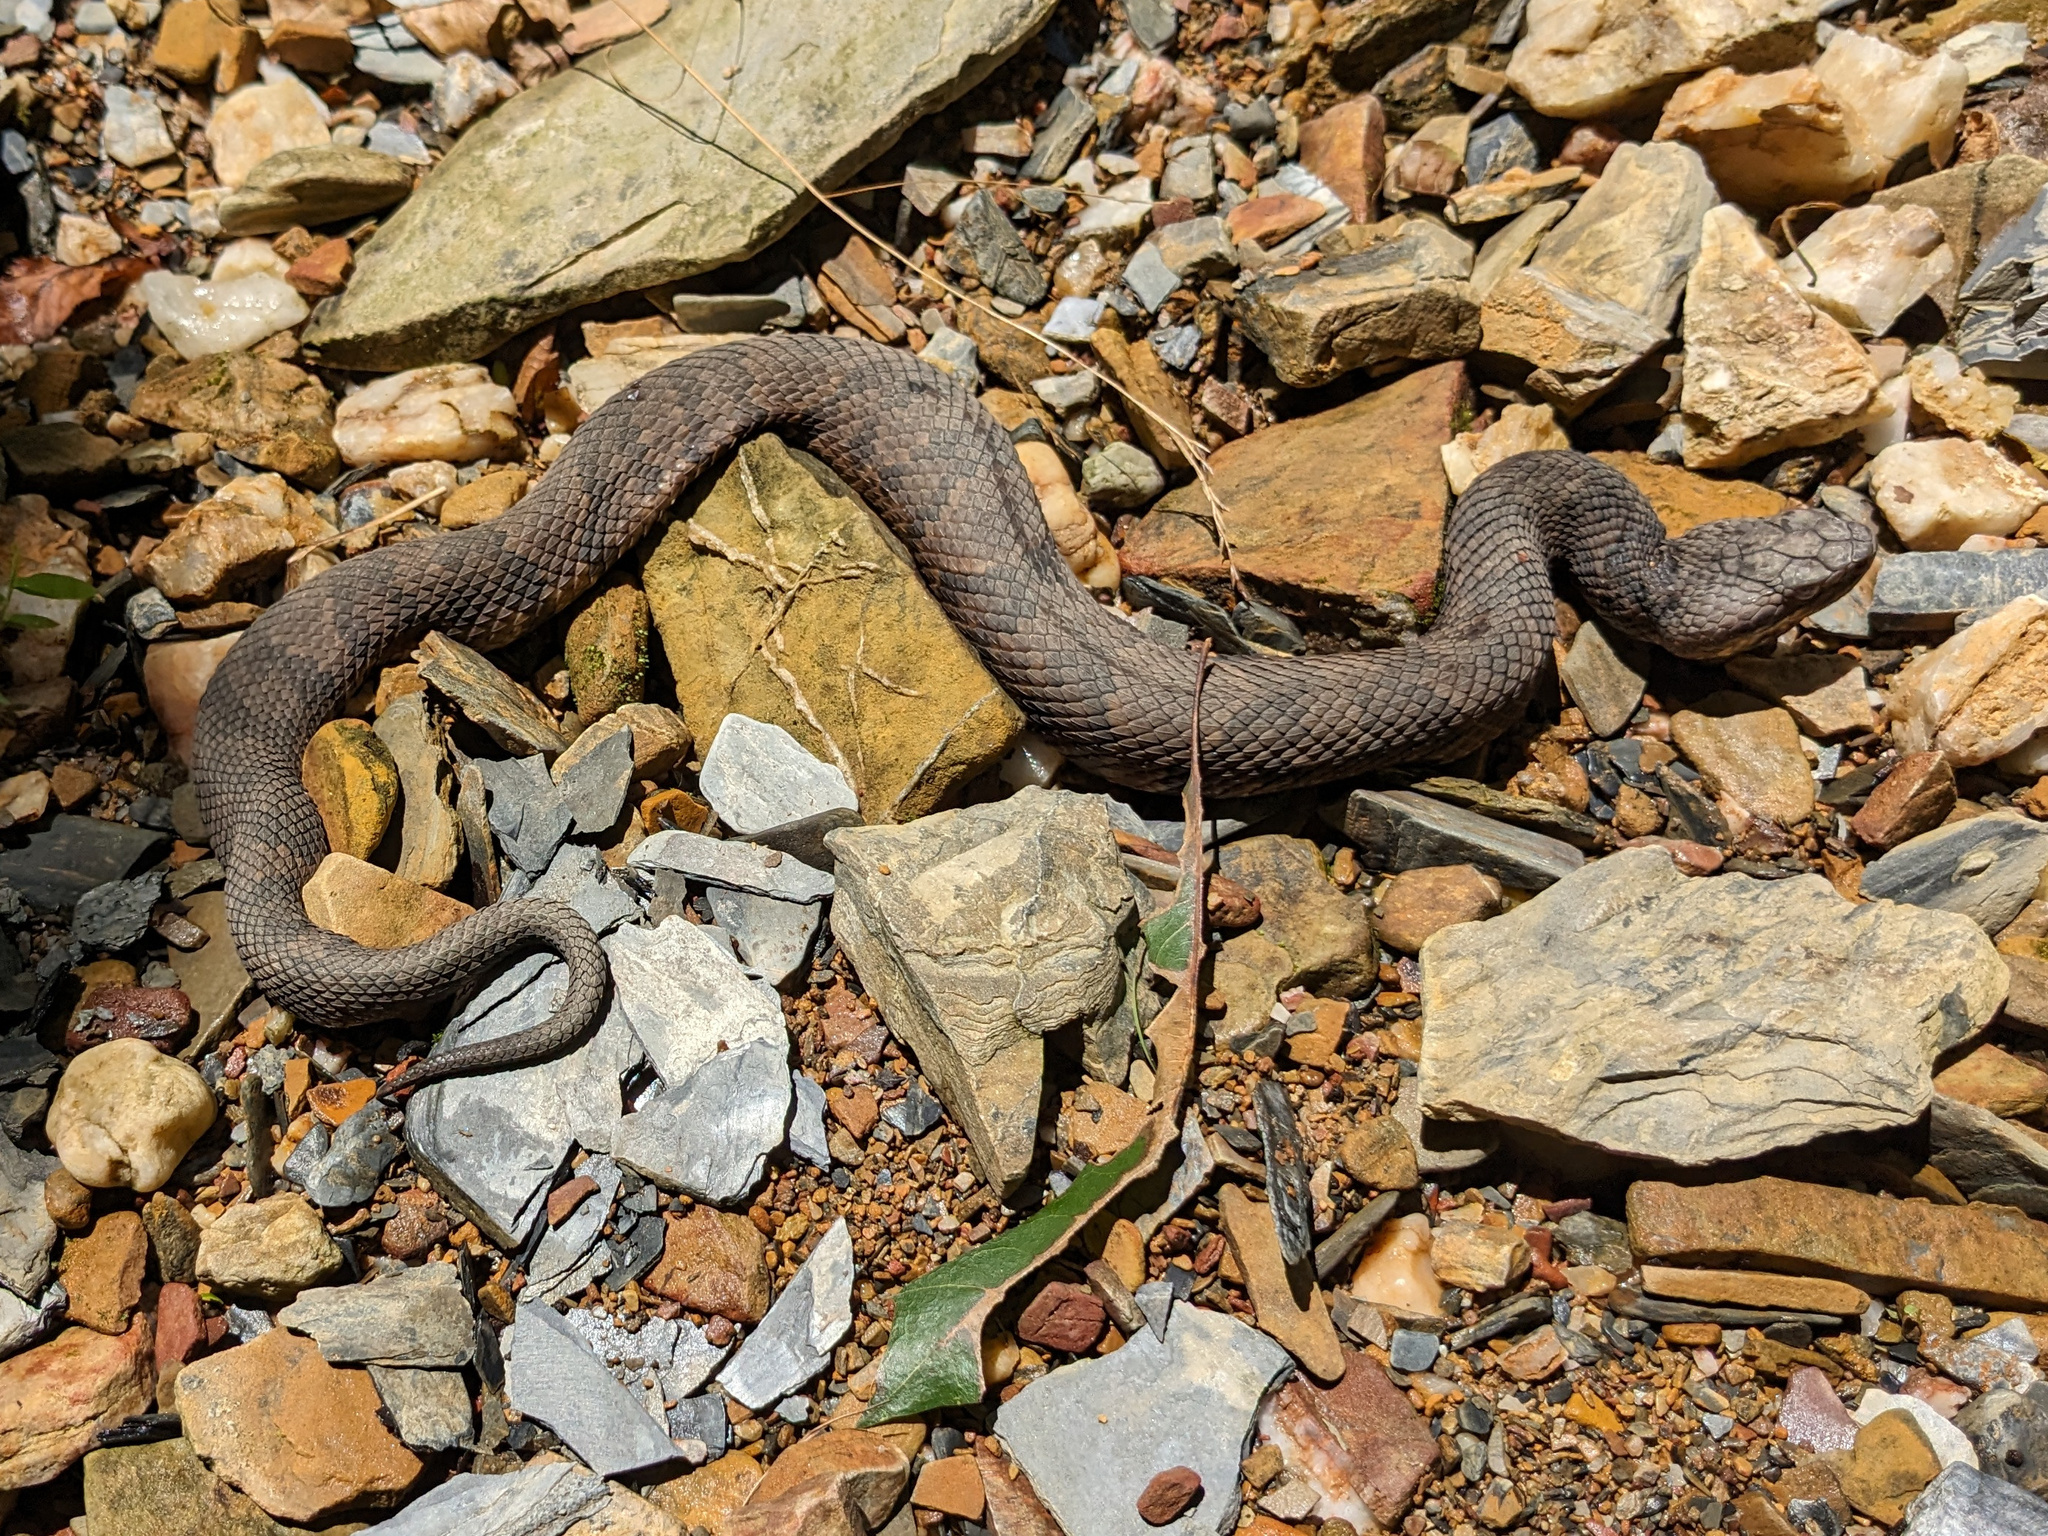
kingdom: Animalia
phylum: Chordata
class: Squamata
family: Viperidae
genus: Agkistrodon
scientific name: Agkistrodon piscivorus
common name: Cottonmouth
